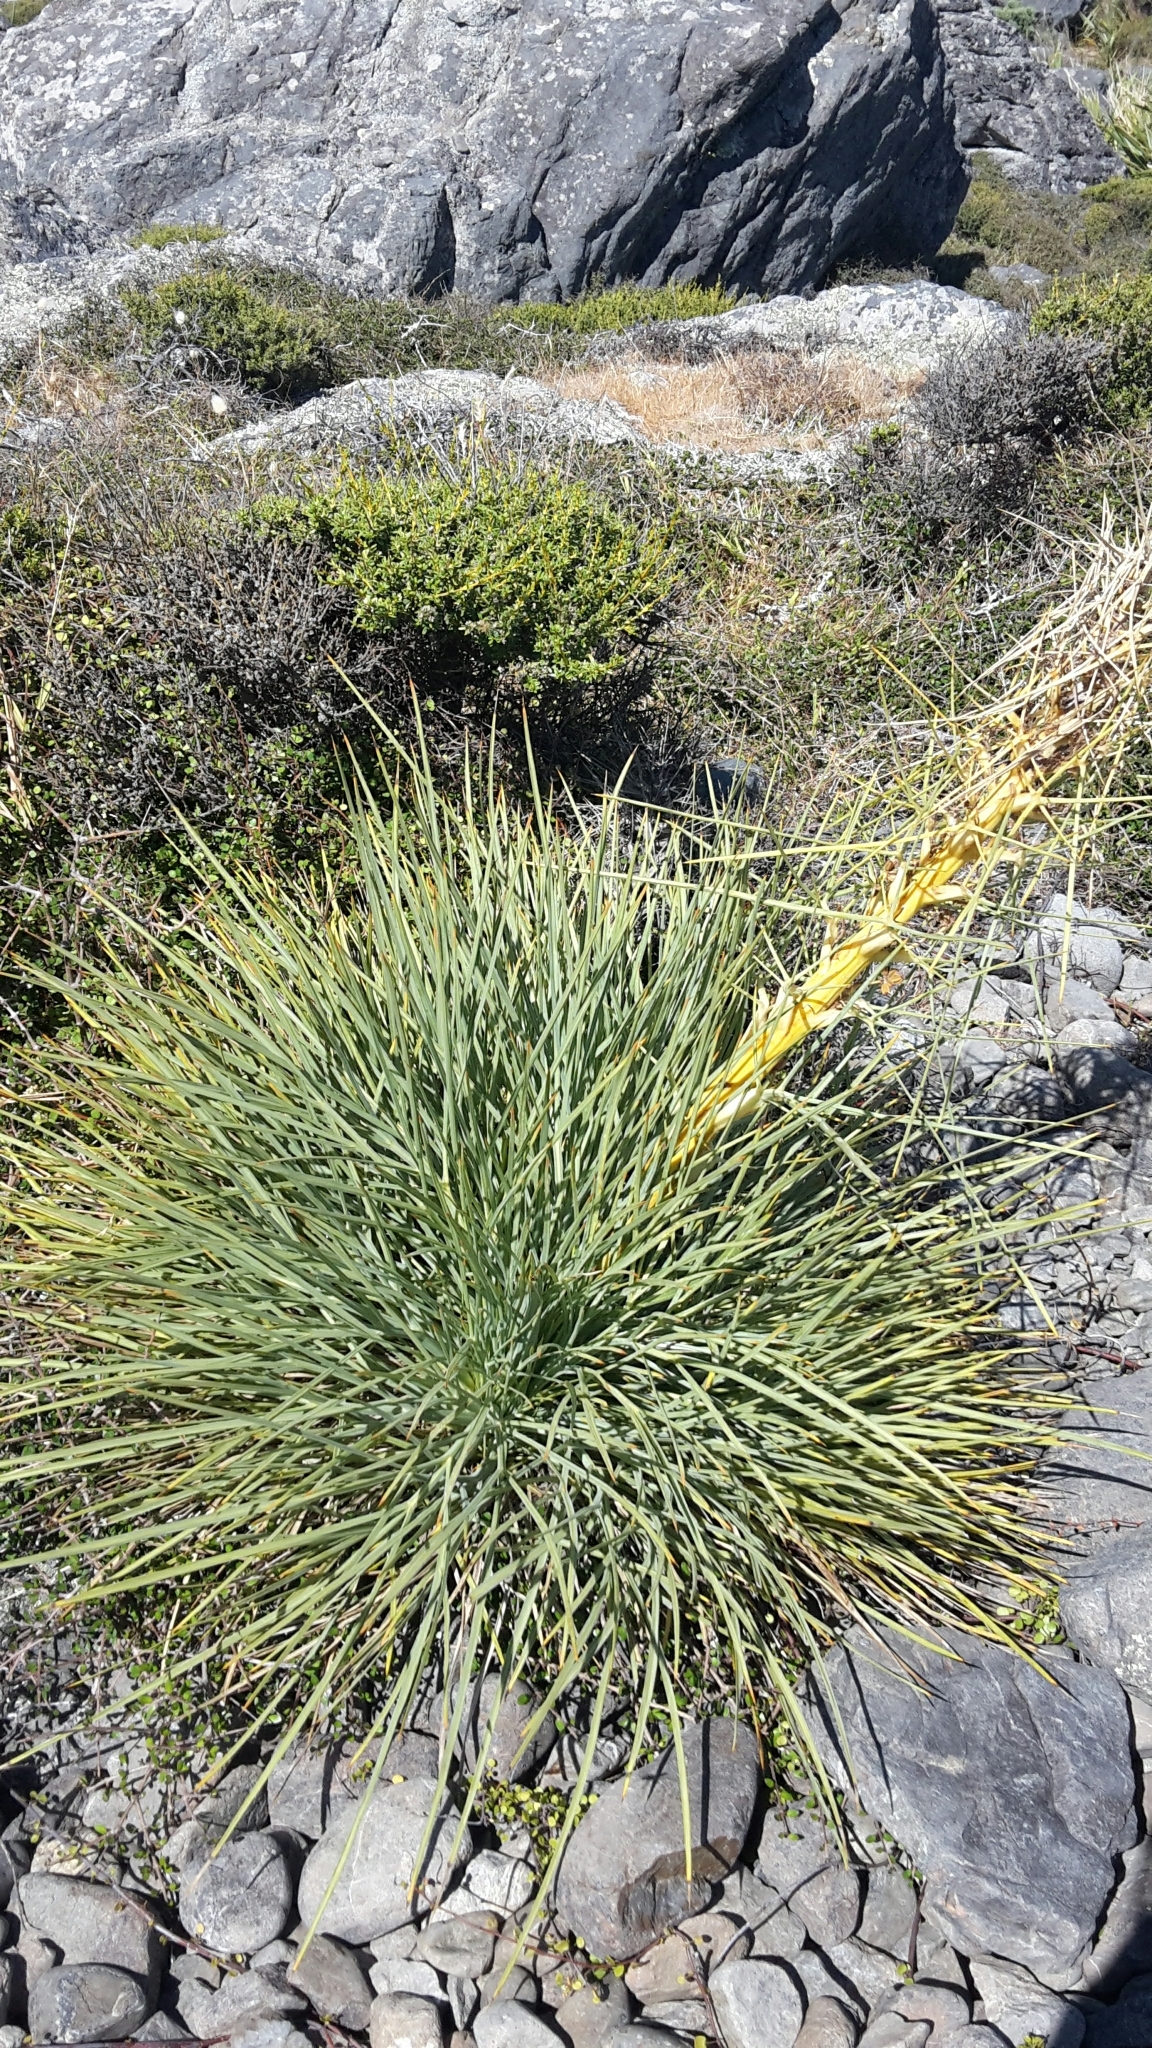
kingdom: Plantae
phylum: Tracheophyta
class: Magnoliopsida
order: Apiales
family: Apiaceae
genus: Aciphylla
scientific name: Aciphylla squarrosa
